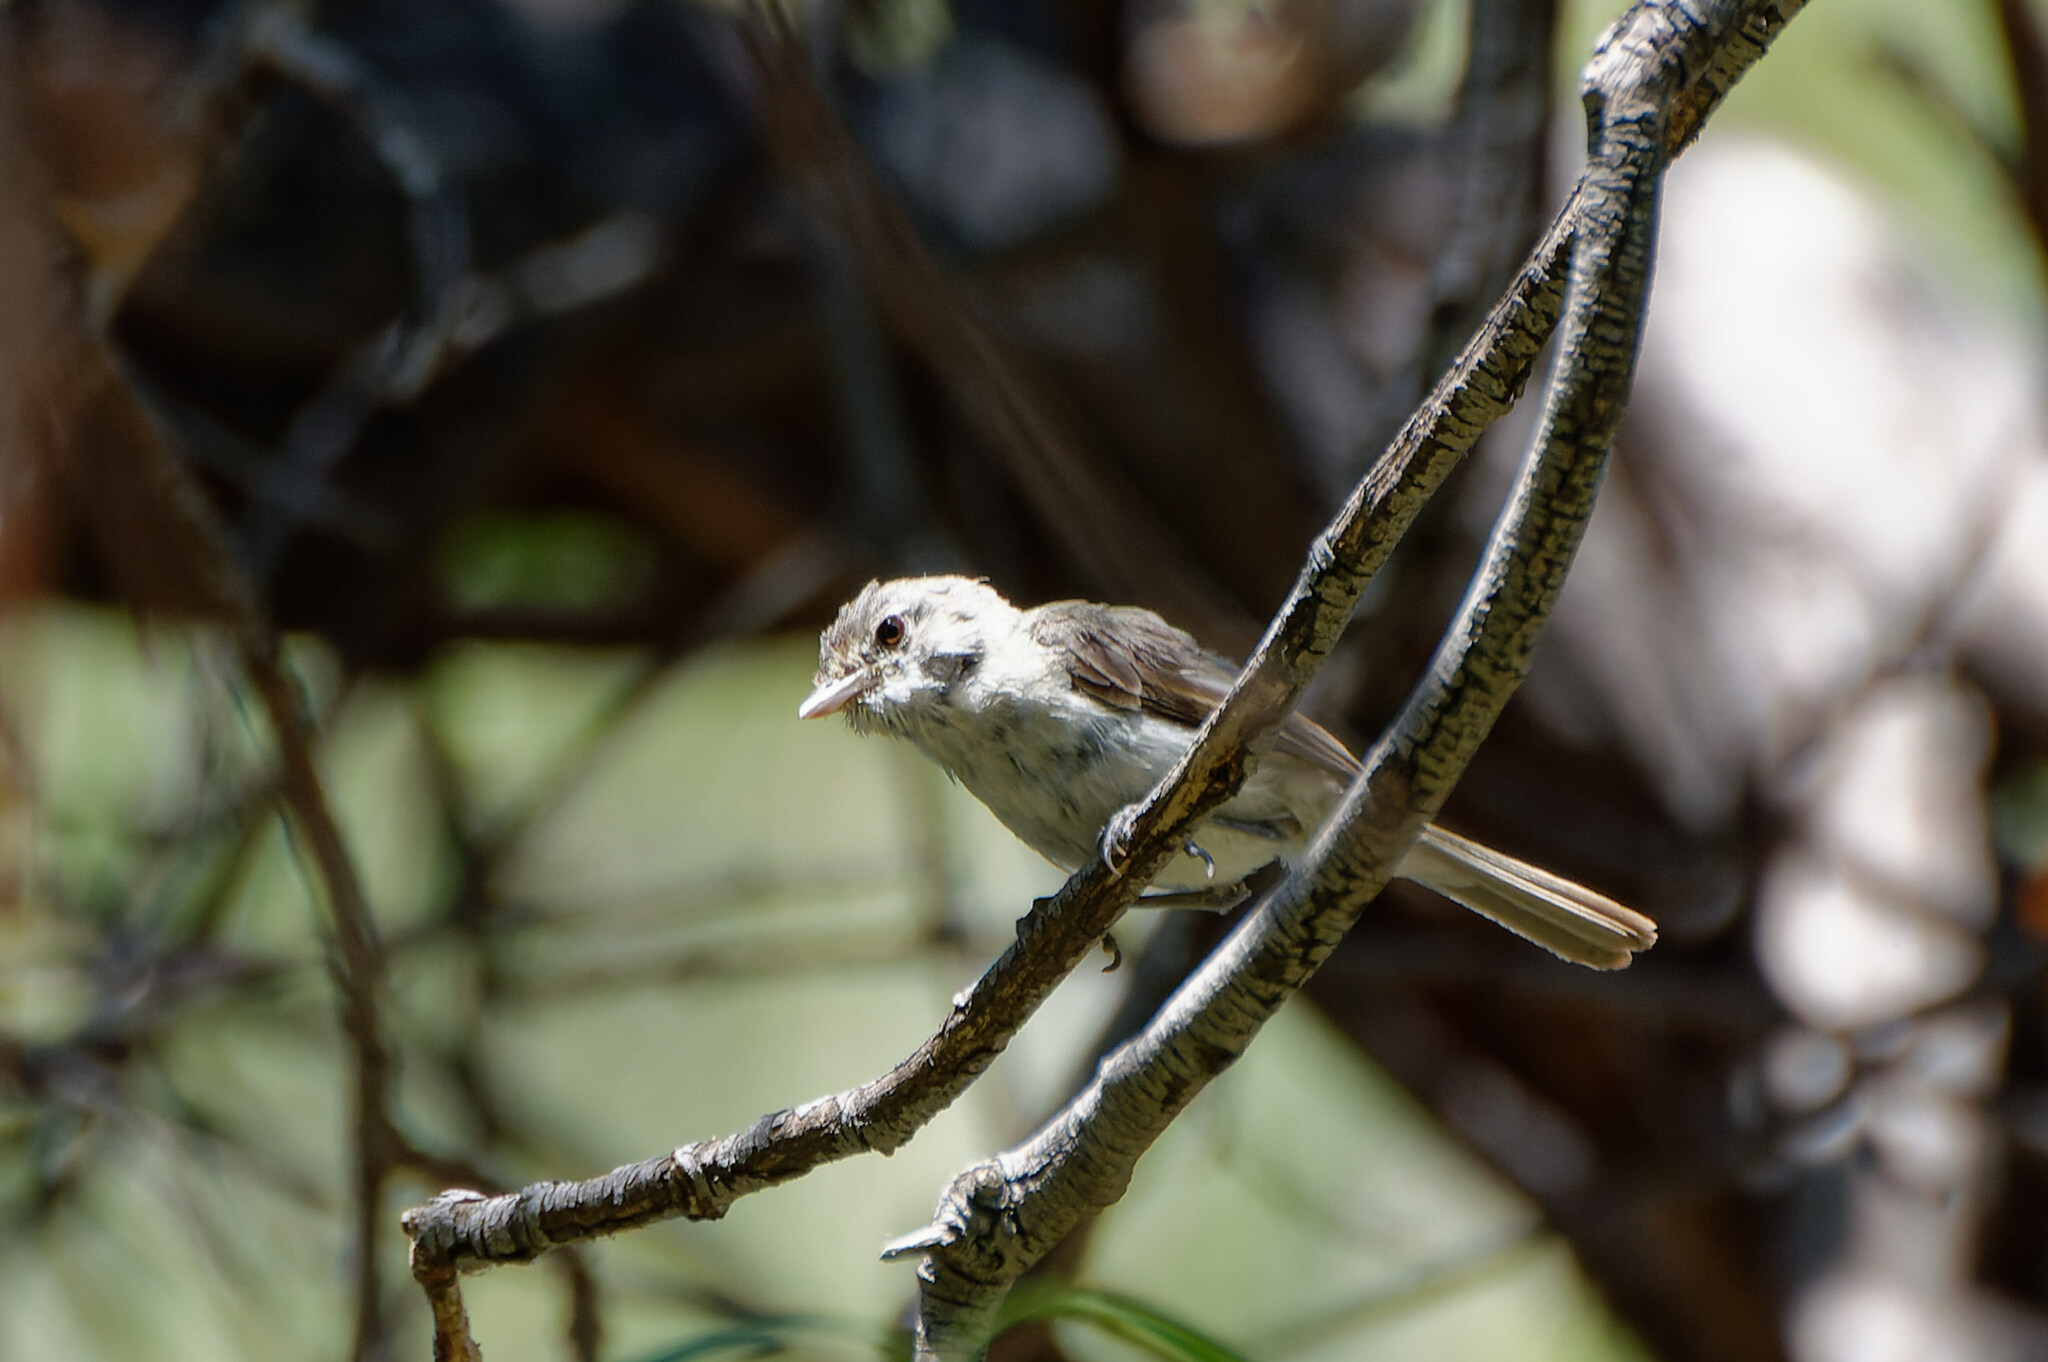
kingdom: Animalia
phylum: Chordata
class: Aves
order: Passeriformes
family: Vireonidae
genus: Vireo
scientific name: Vireo bellii
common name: Bell's vireo
